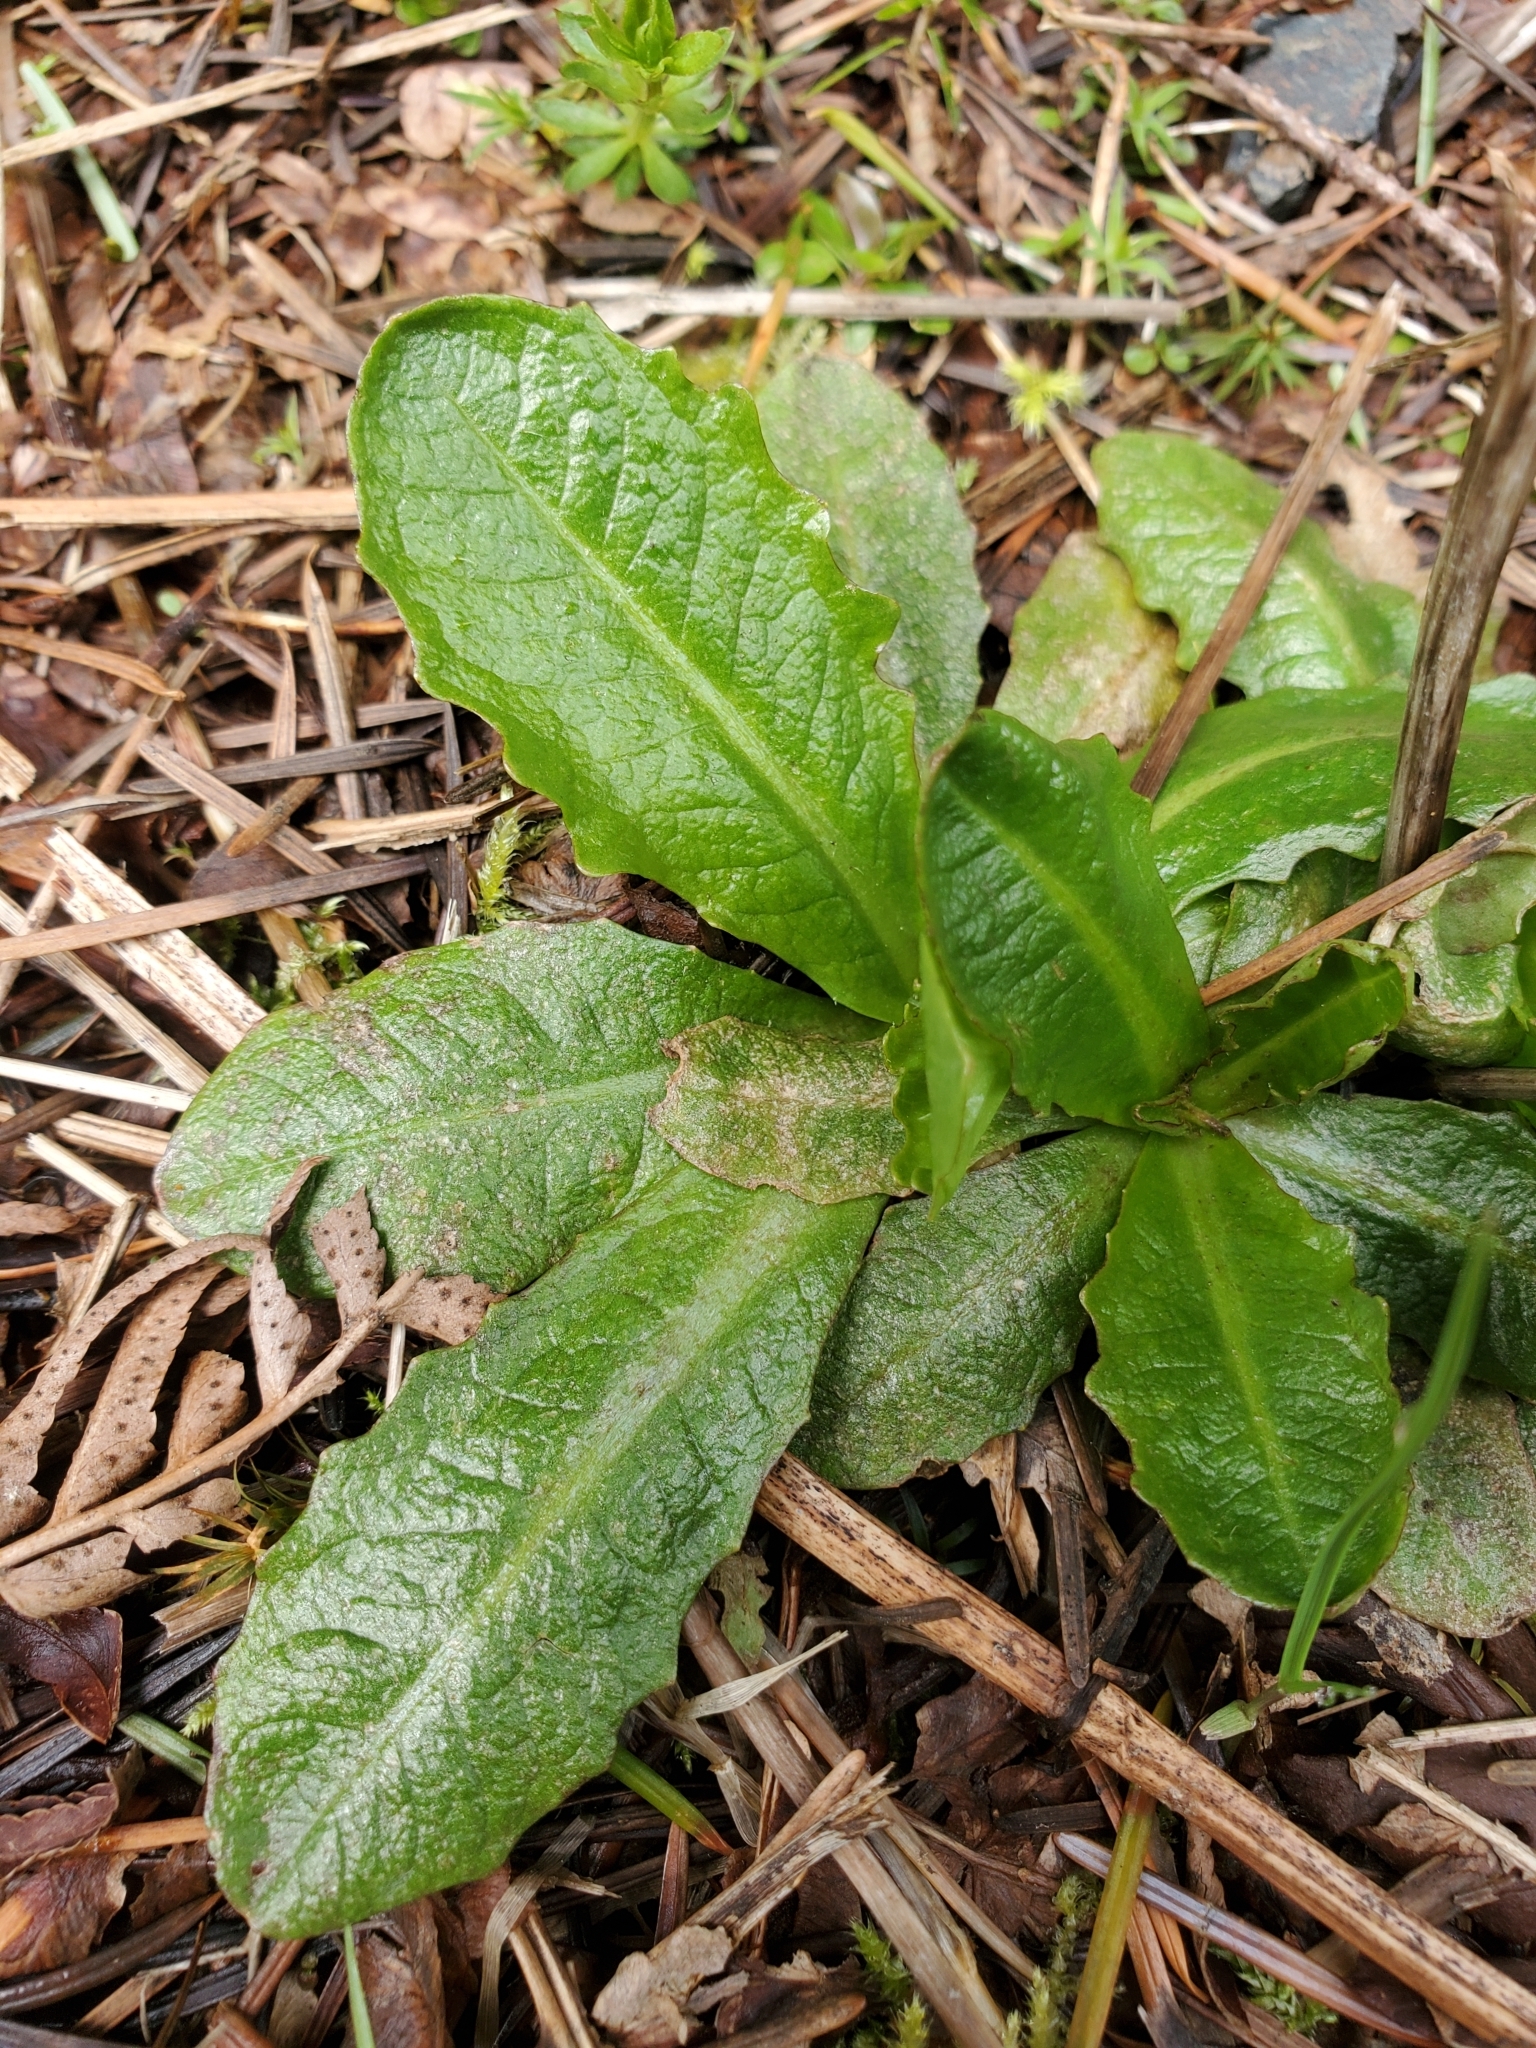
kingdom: Plantae
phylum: Tracheophyta
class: Magnoliopsida
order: Asterales
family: Asteraceae
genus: Hypochaeris
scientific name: Hypochaeris radicata
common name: Flatweed
